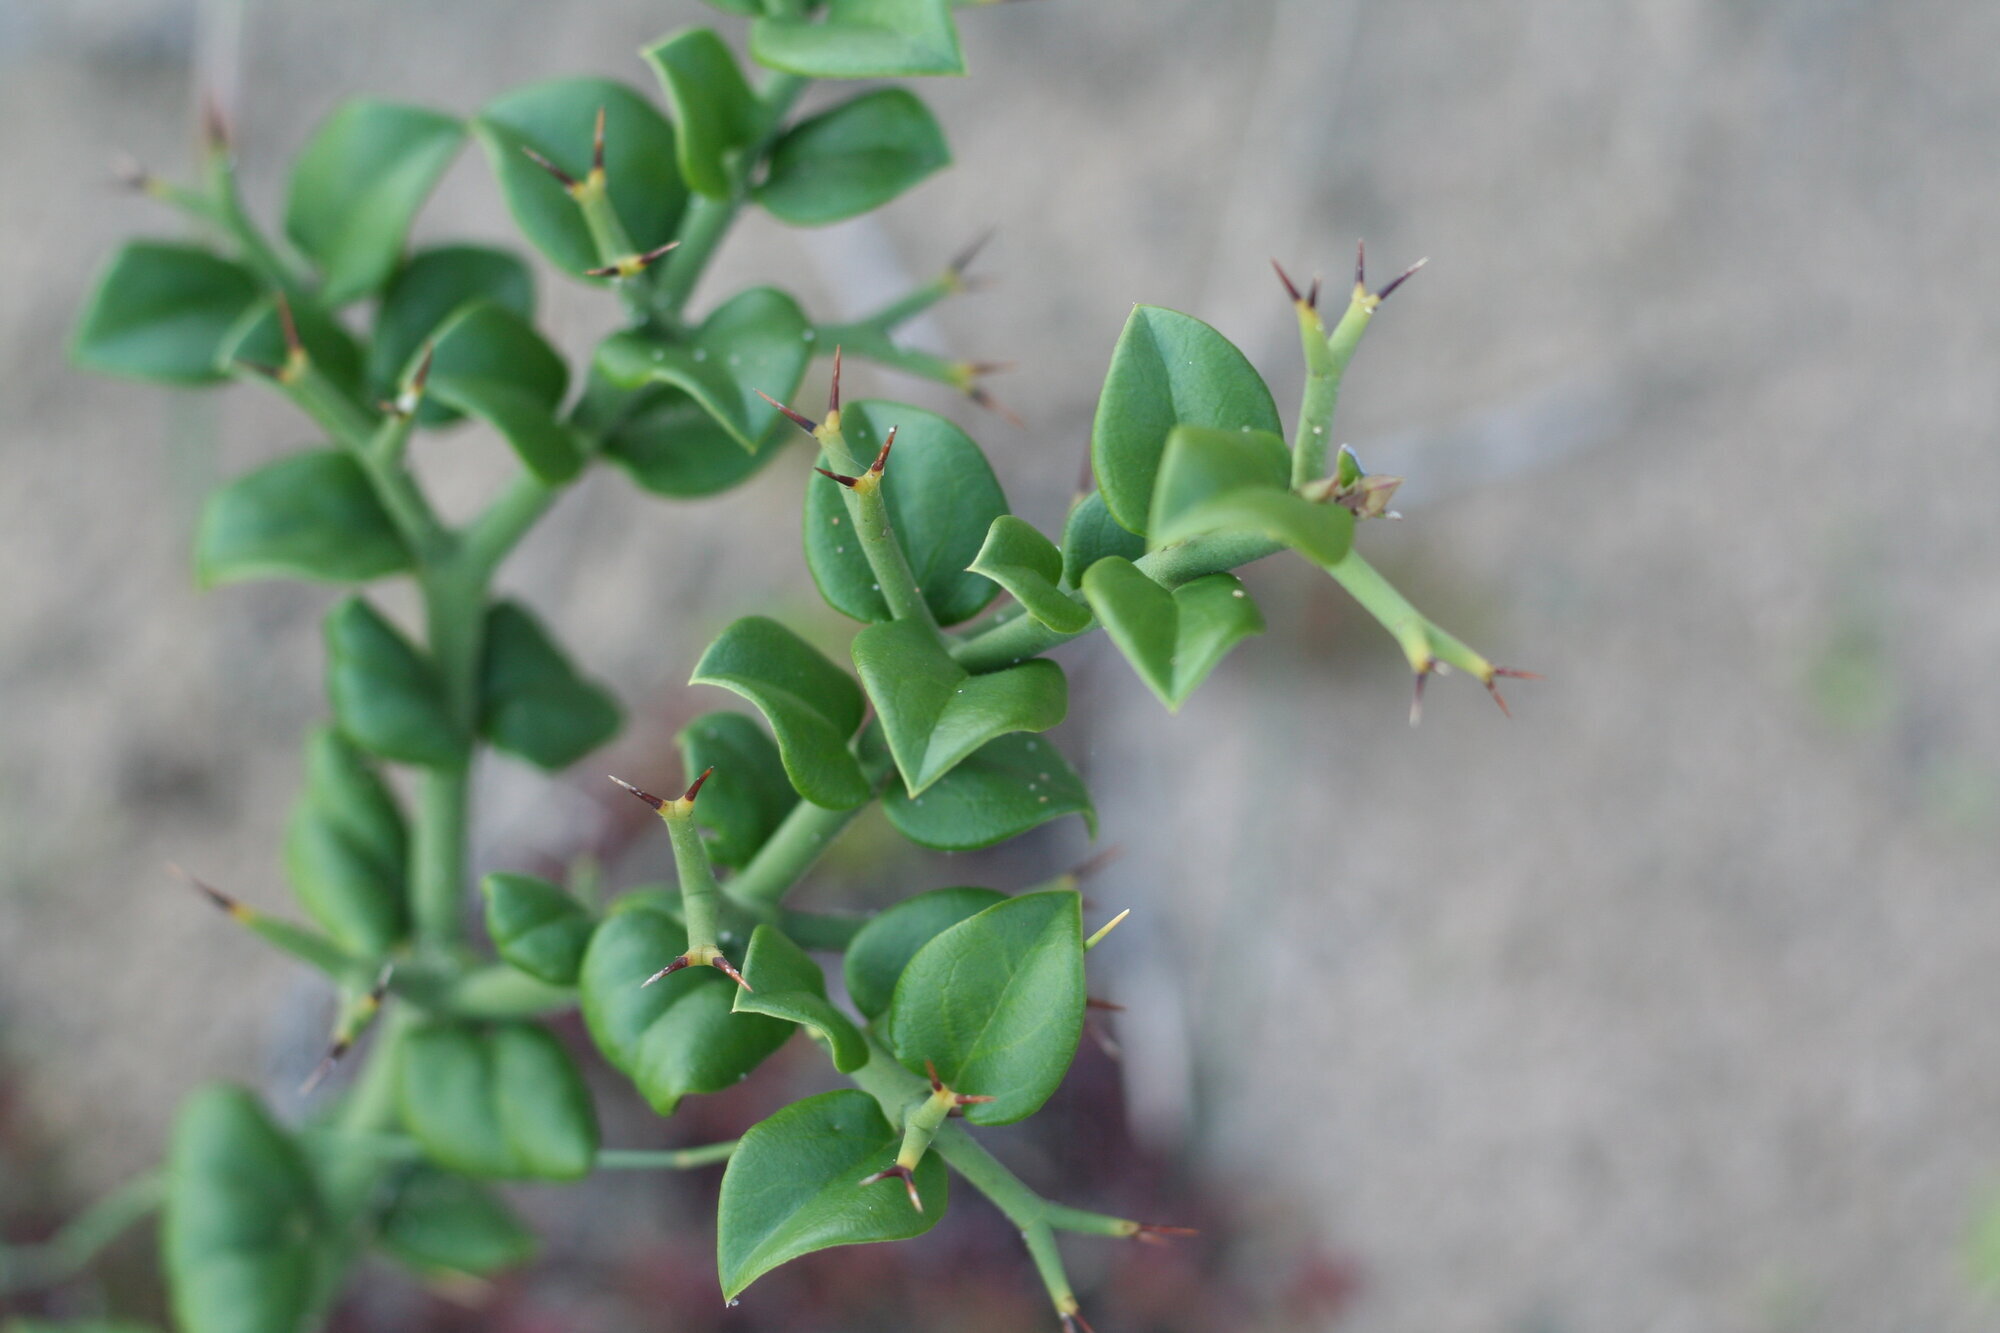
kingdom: Plantae
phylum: Tracheophyta
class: Magnoliopsida
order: Gentianales
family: Apocynaceae
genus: Carissa
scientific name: Carissa bispinosa
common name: Forest num-num
